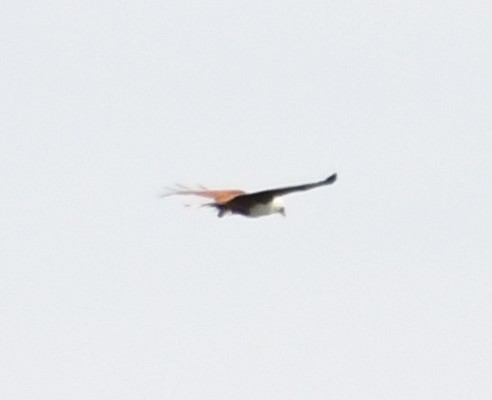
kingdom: Animalia
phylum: Chordata
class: Aves
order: Accipitriformes
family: Accipitridae
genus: Haliastur
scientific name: Haliastur indus
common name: Brahminy kite
